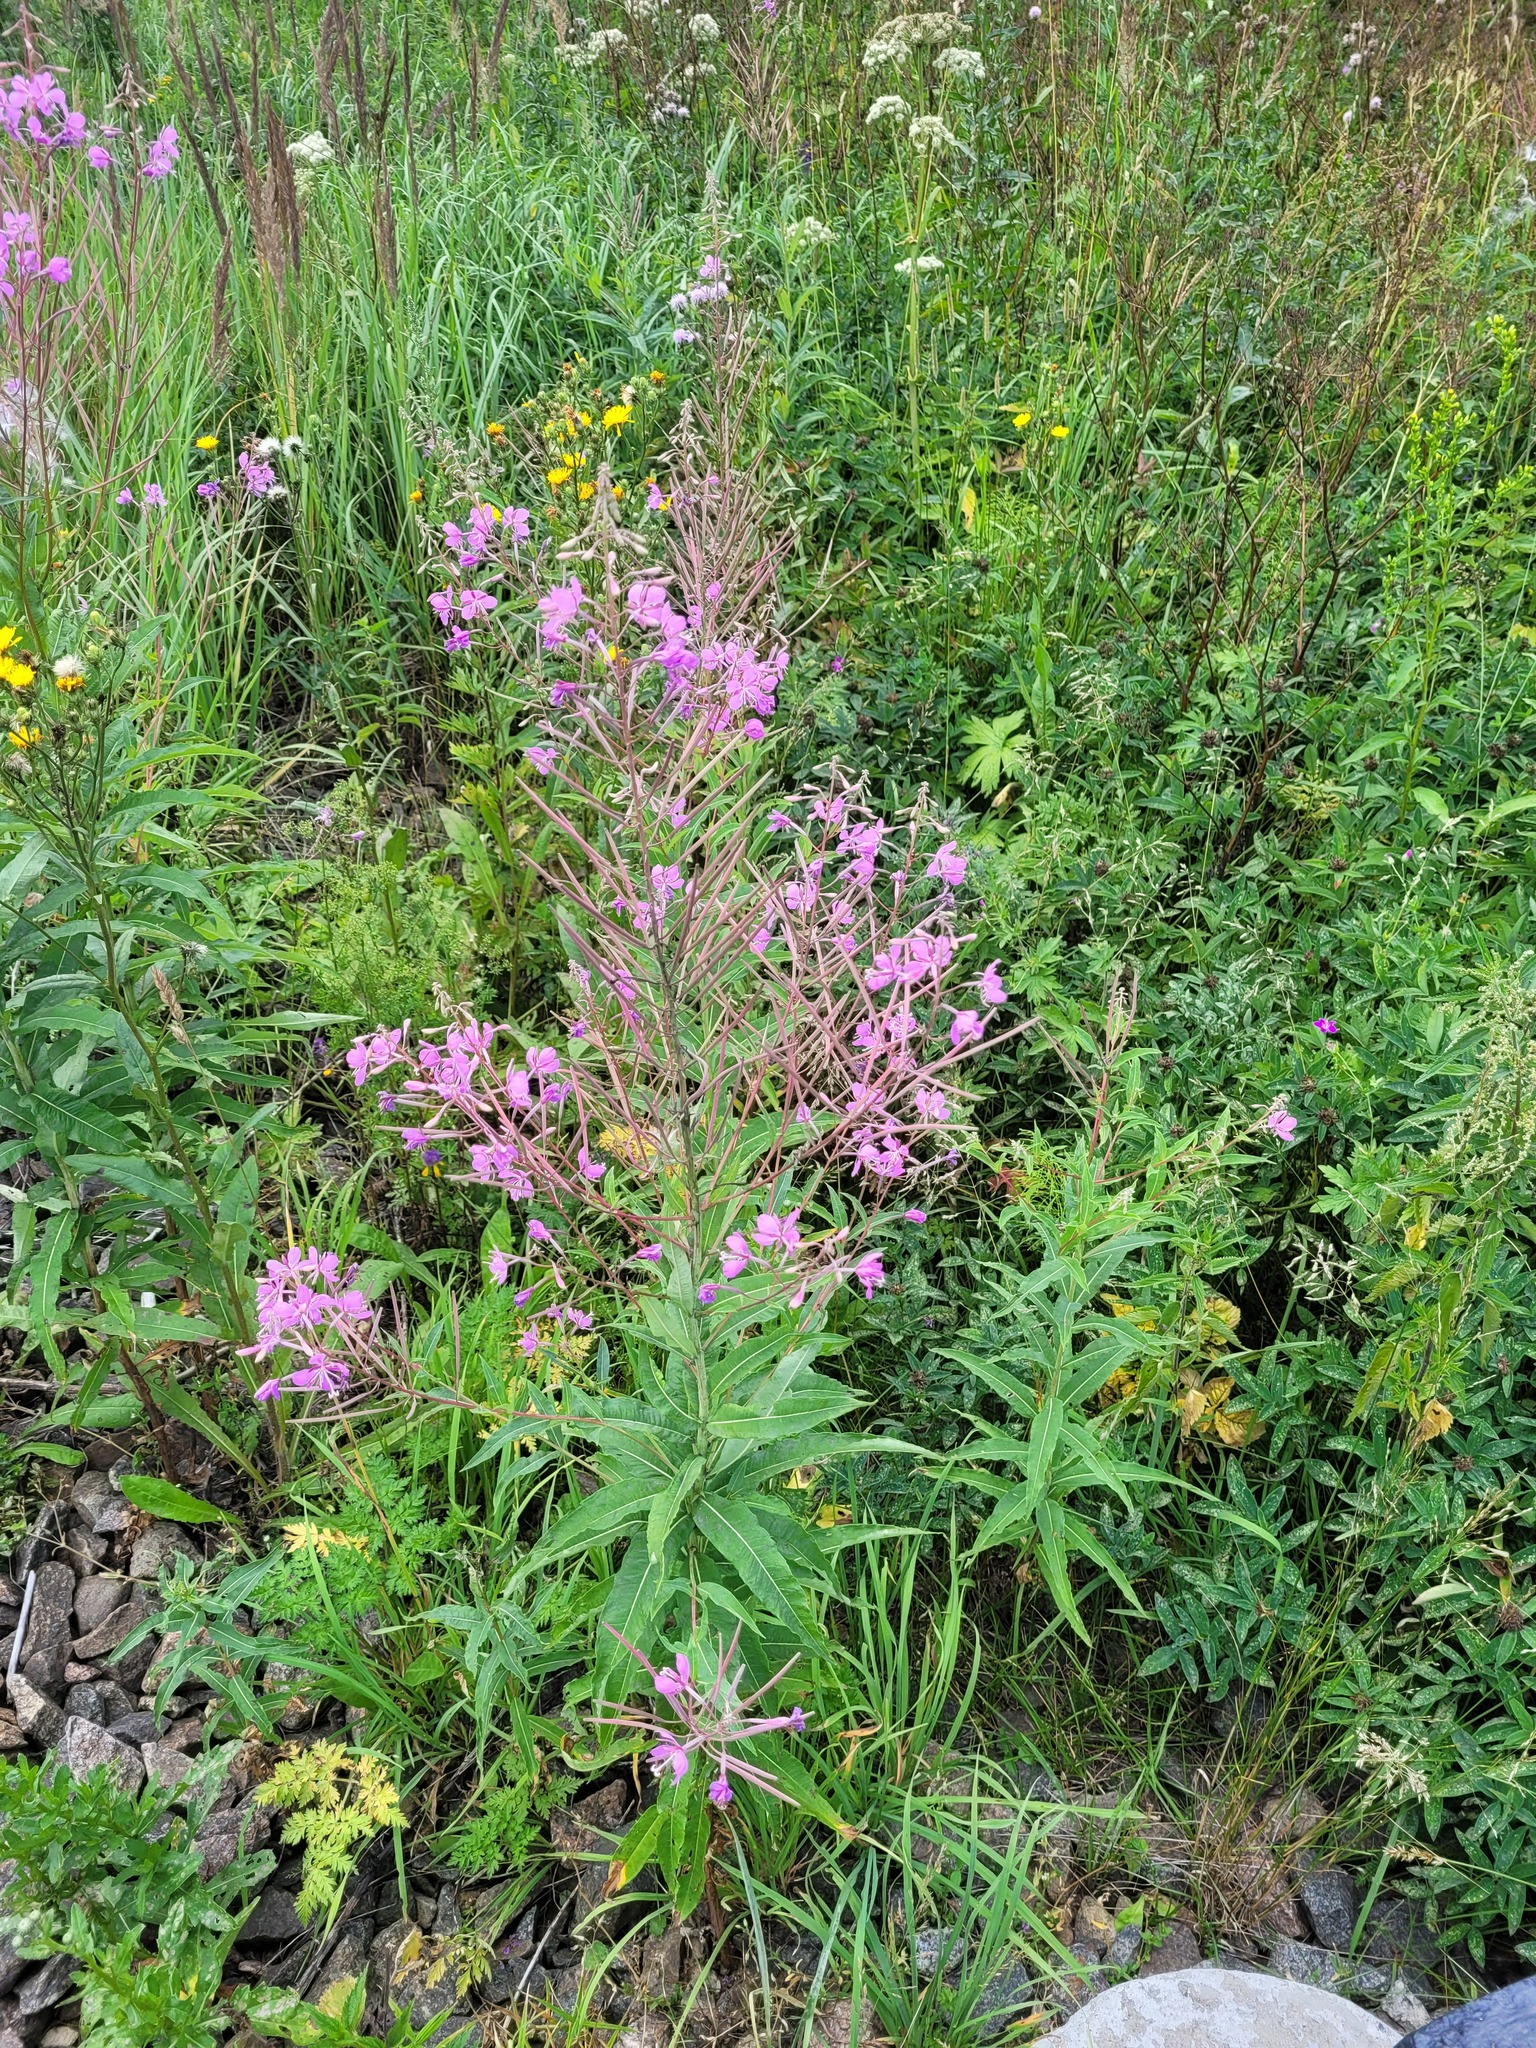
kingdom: Plantae
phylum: Tracheophyta
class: Magnoliopsida
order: Myrtales
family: Onagraceae
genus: Chamaenerion
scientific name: Chamaenerion angustifolium
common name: Fireweed
